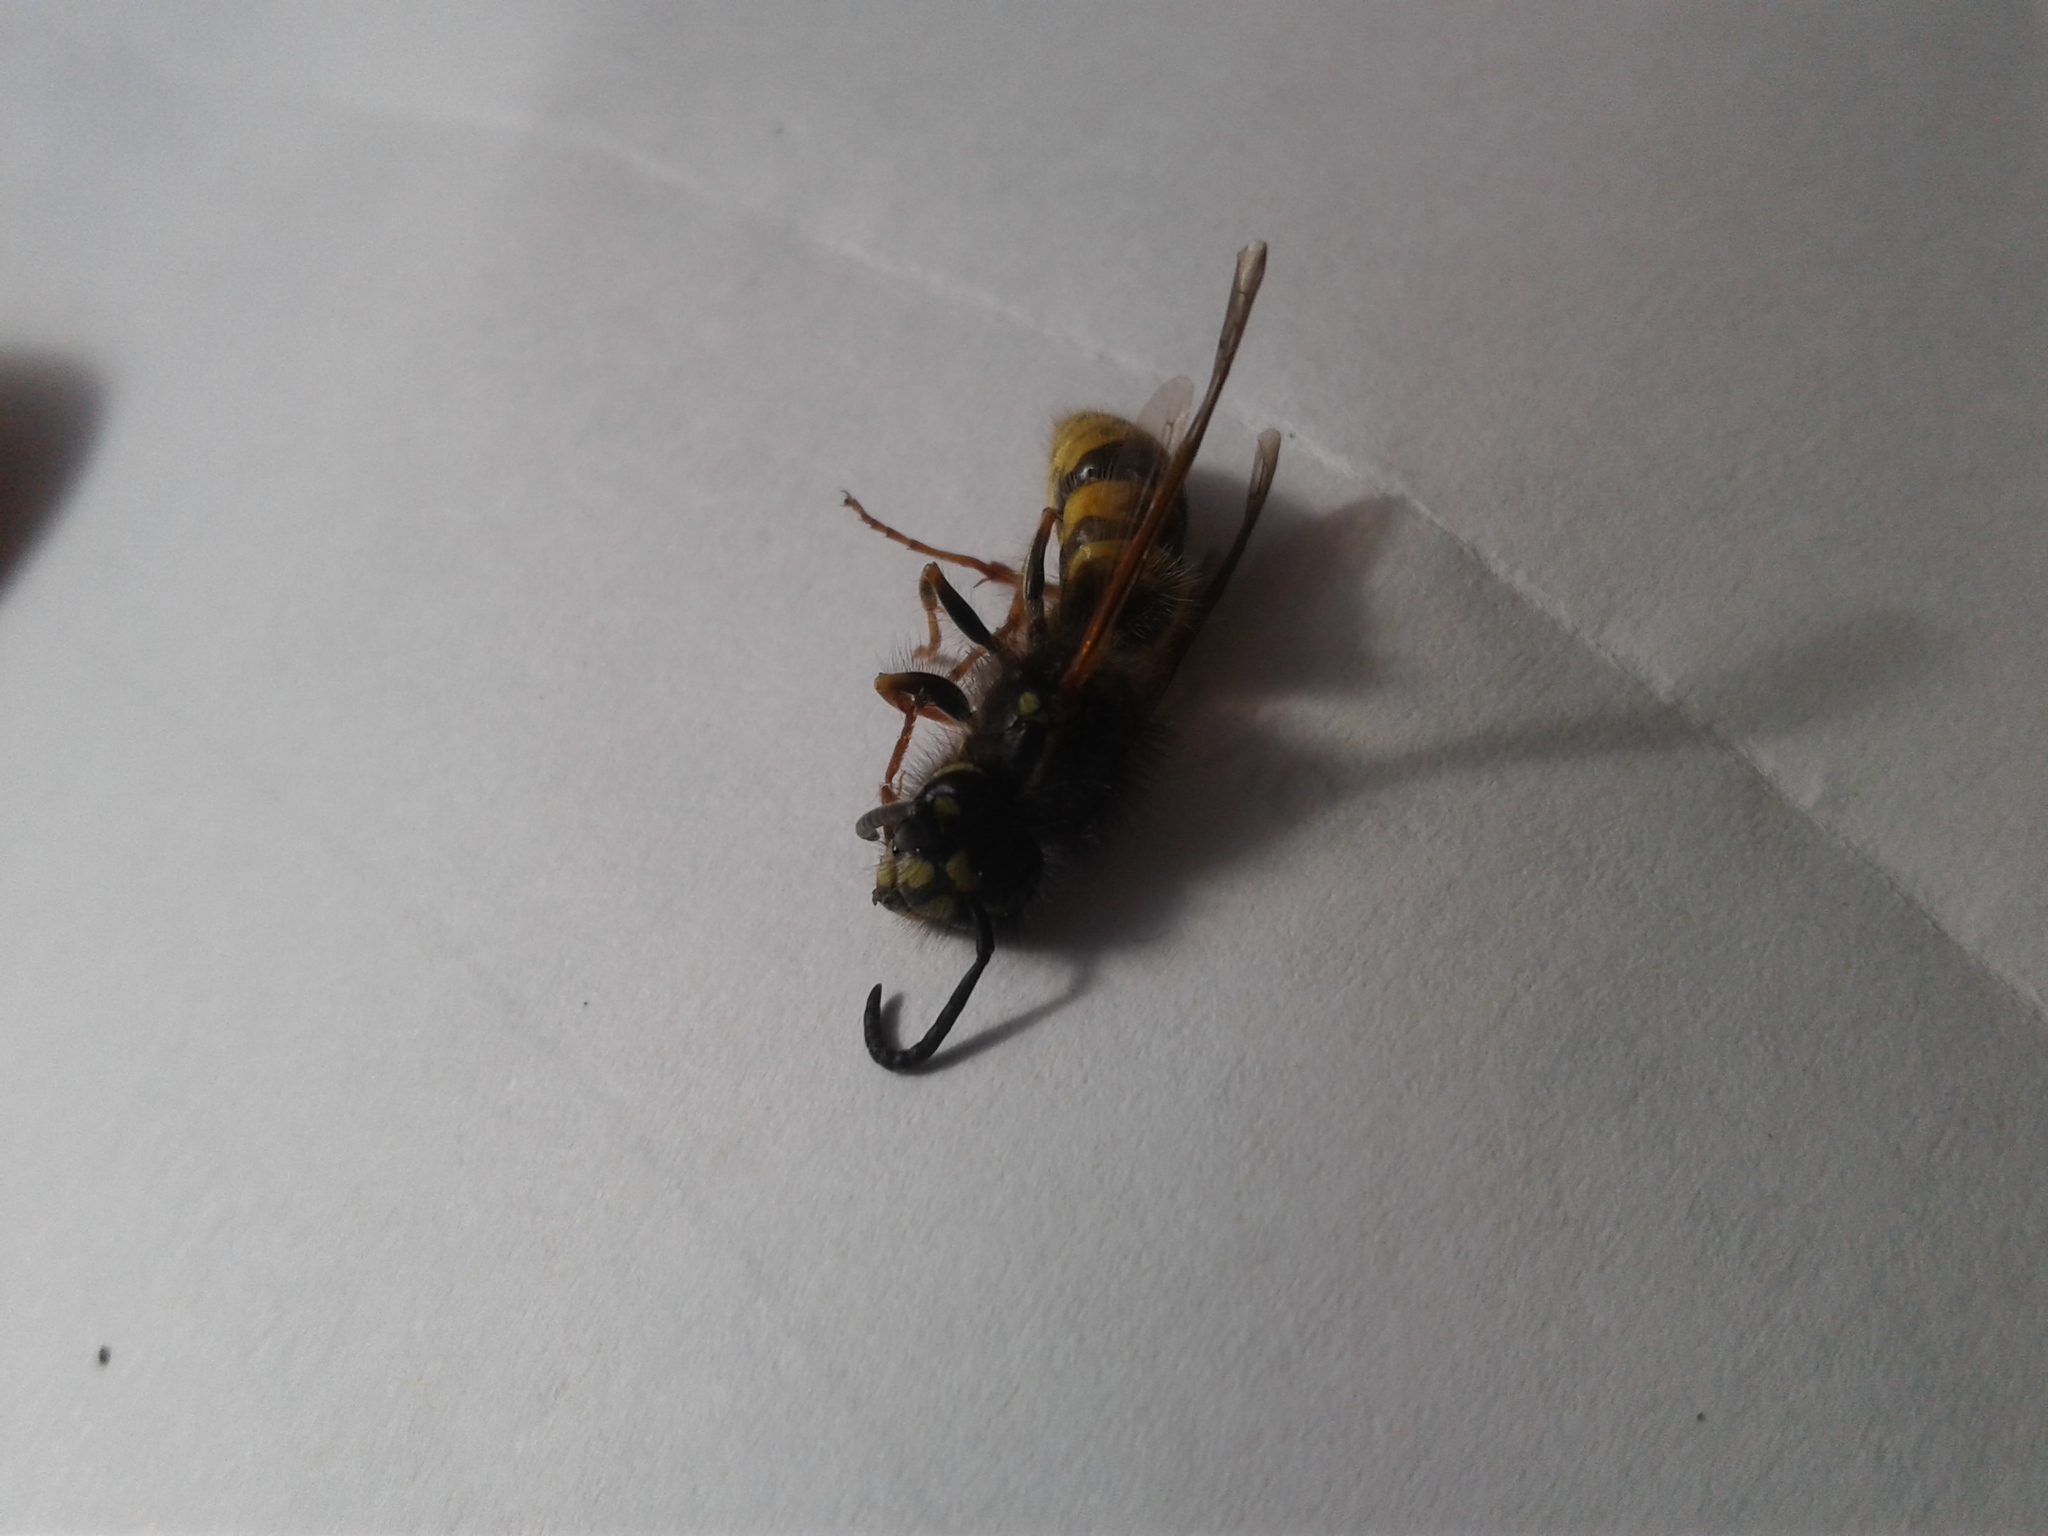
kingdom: Animalia
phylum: Arthropoda
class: Insecta
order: Hymenoptera
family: Vespidae
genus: Vespula
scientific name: Vespula vulgaris
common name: Common wasp
